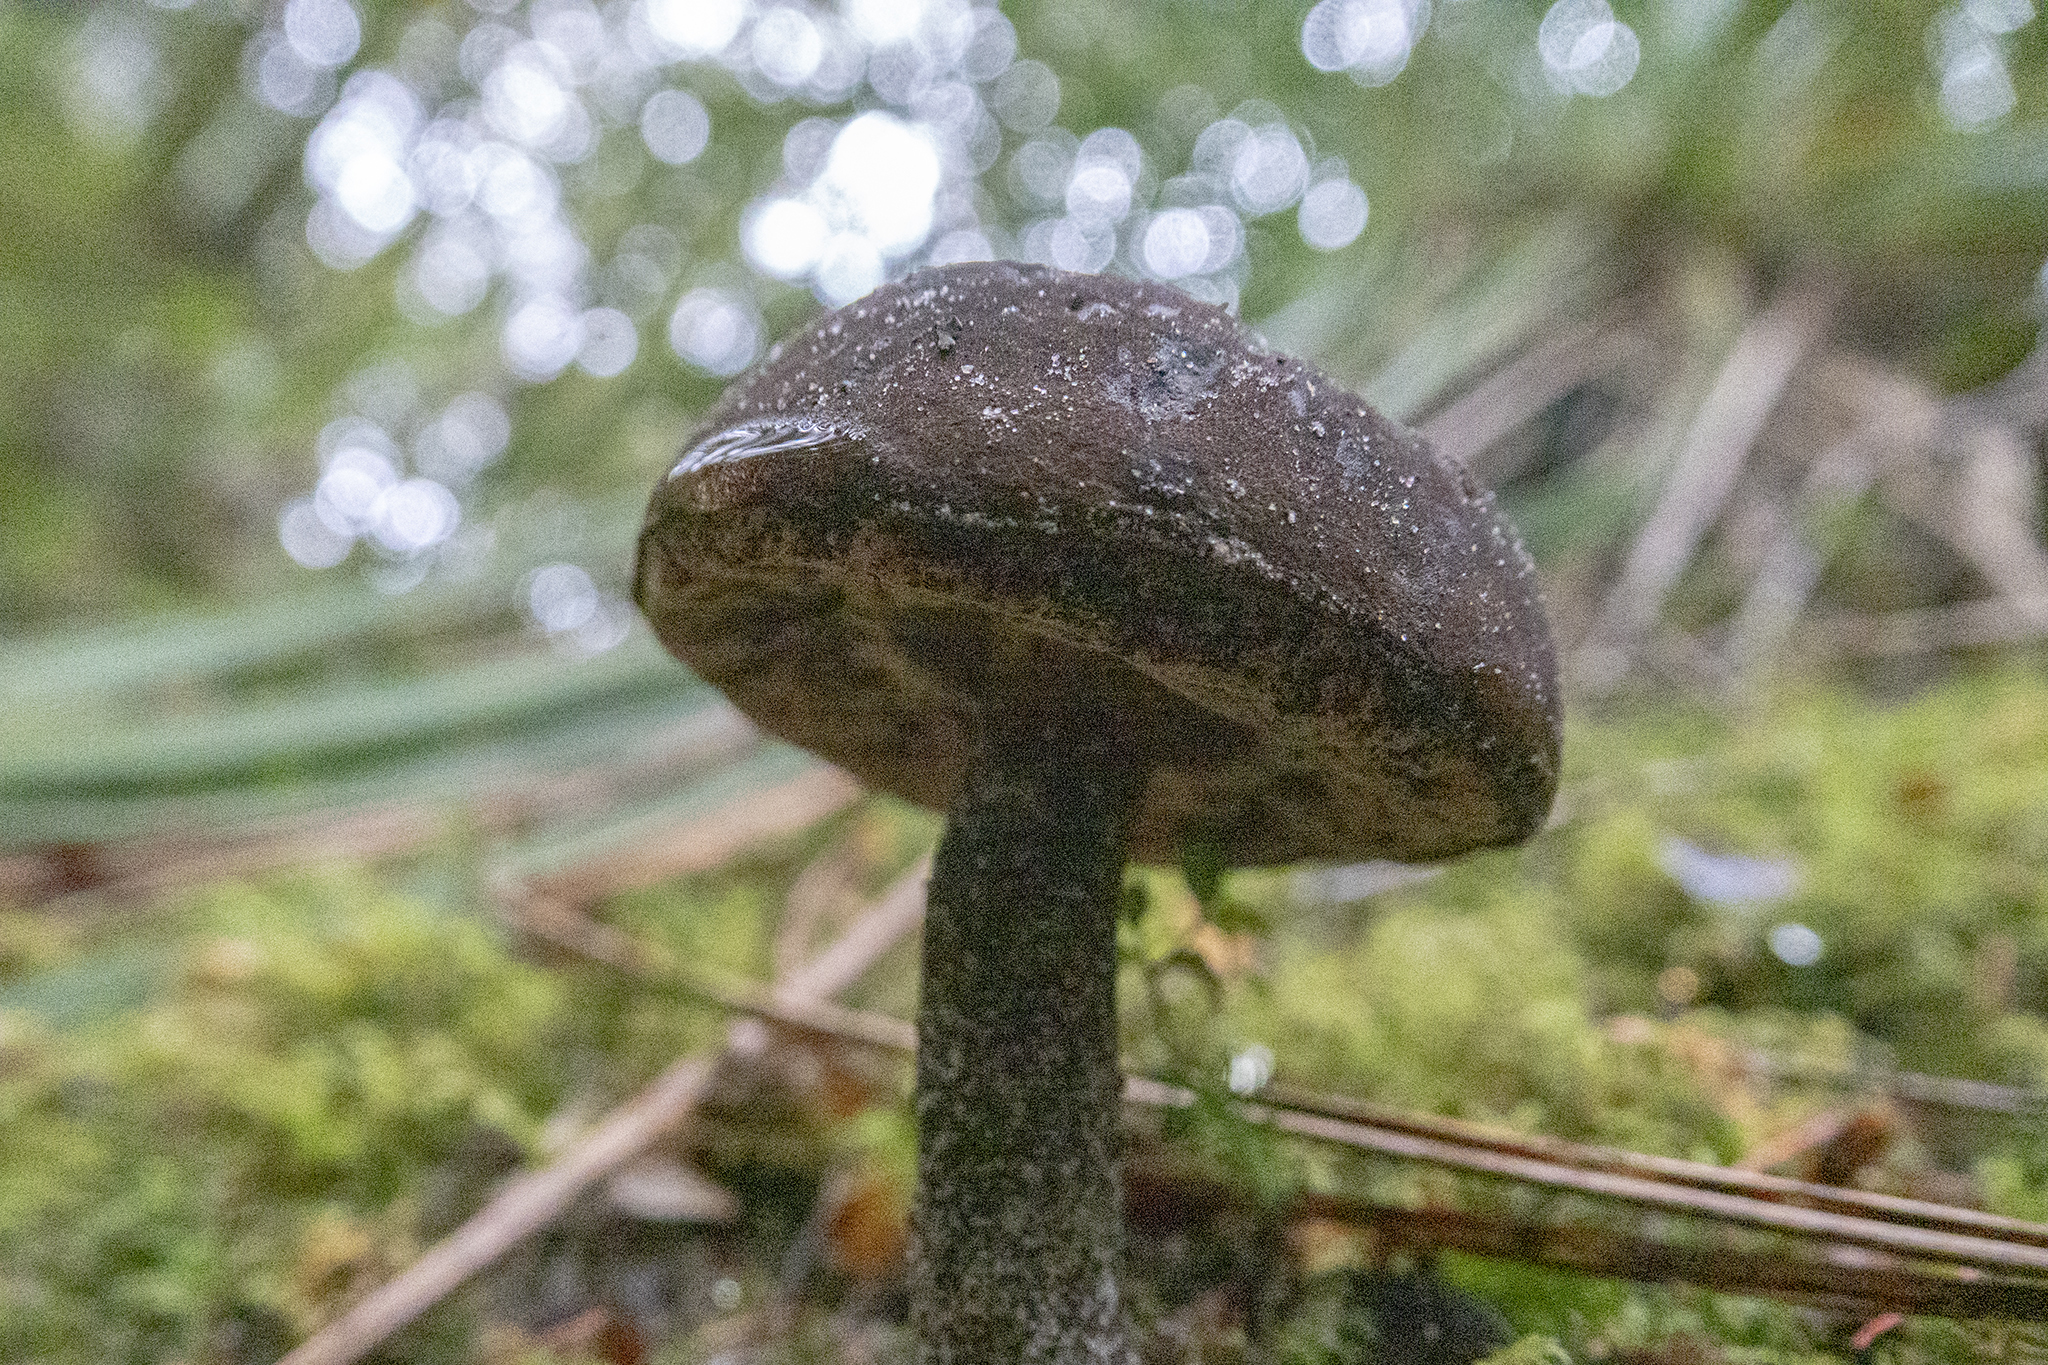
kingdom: Fungi
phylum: Basidiomycota
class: Agaricomycetes
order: Boletales
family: Boletaceae
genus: Porphyrellus
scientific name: Porphyrellus formosus
